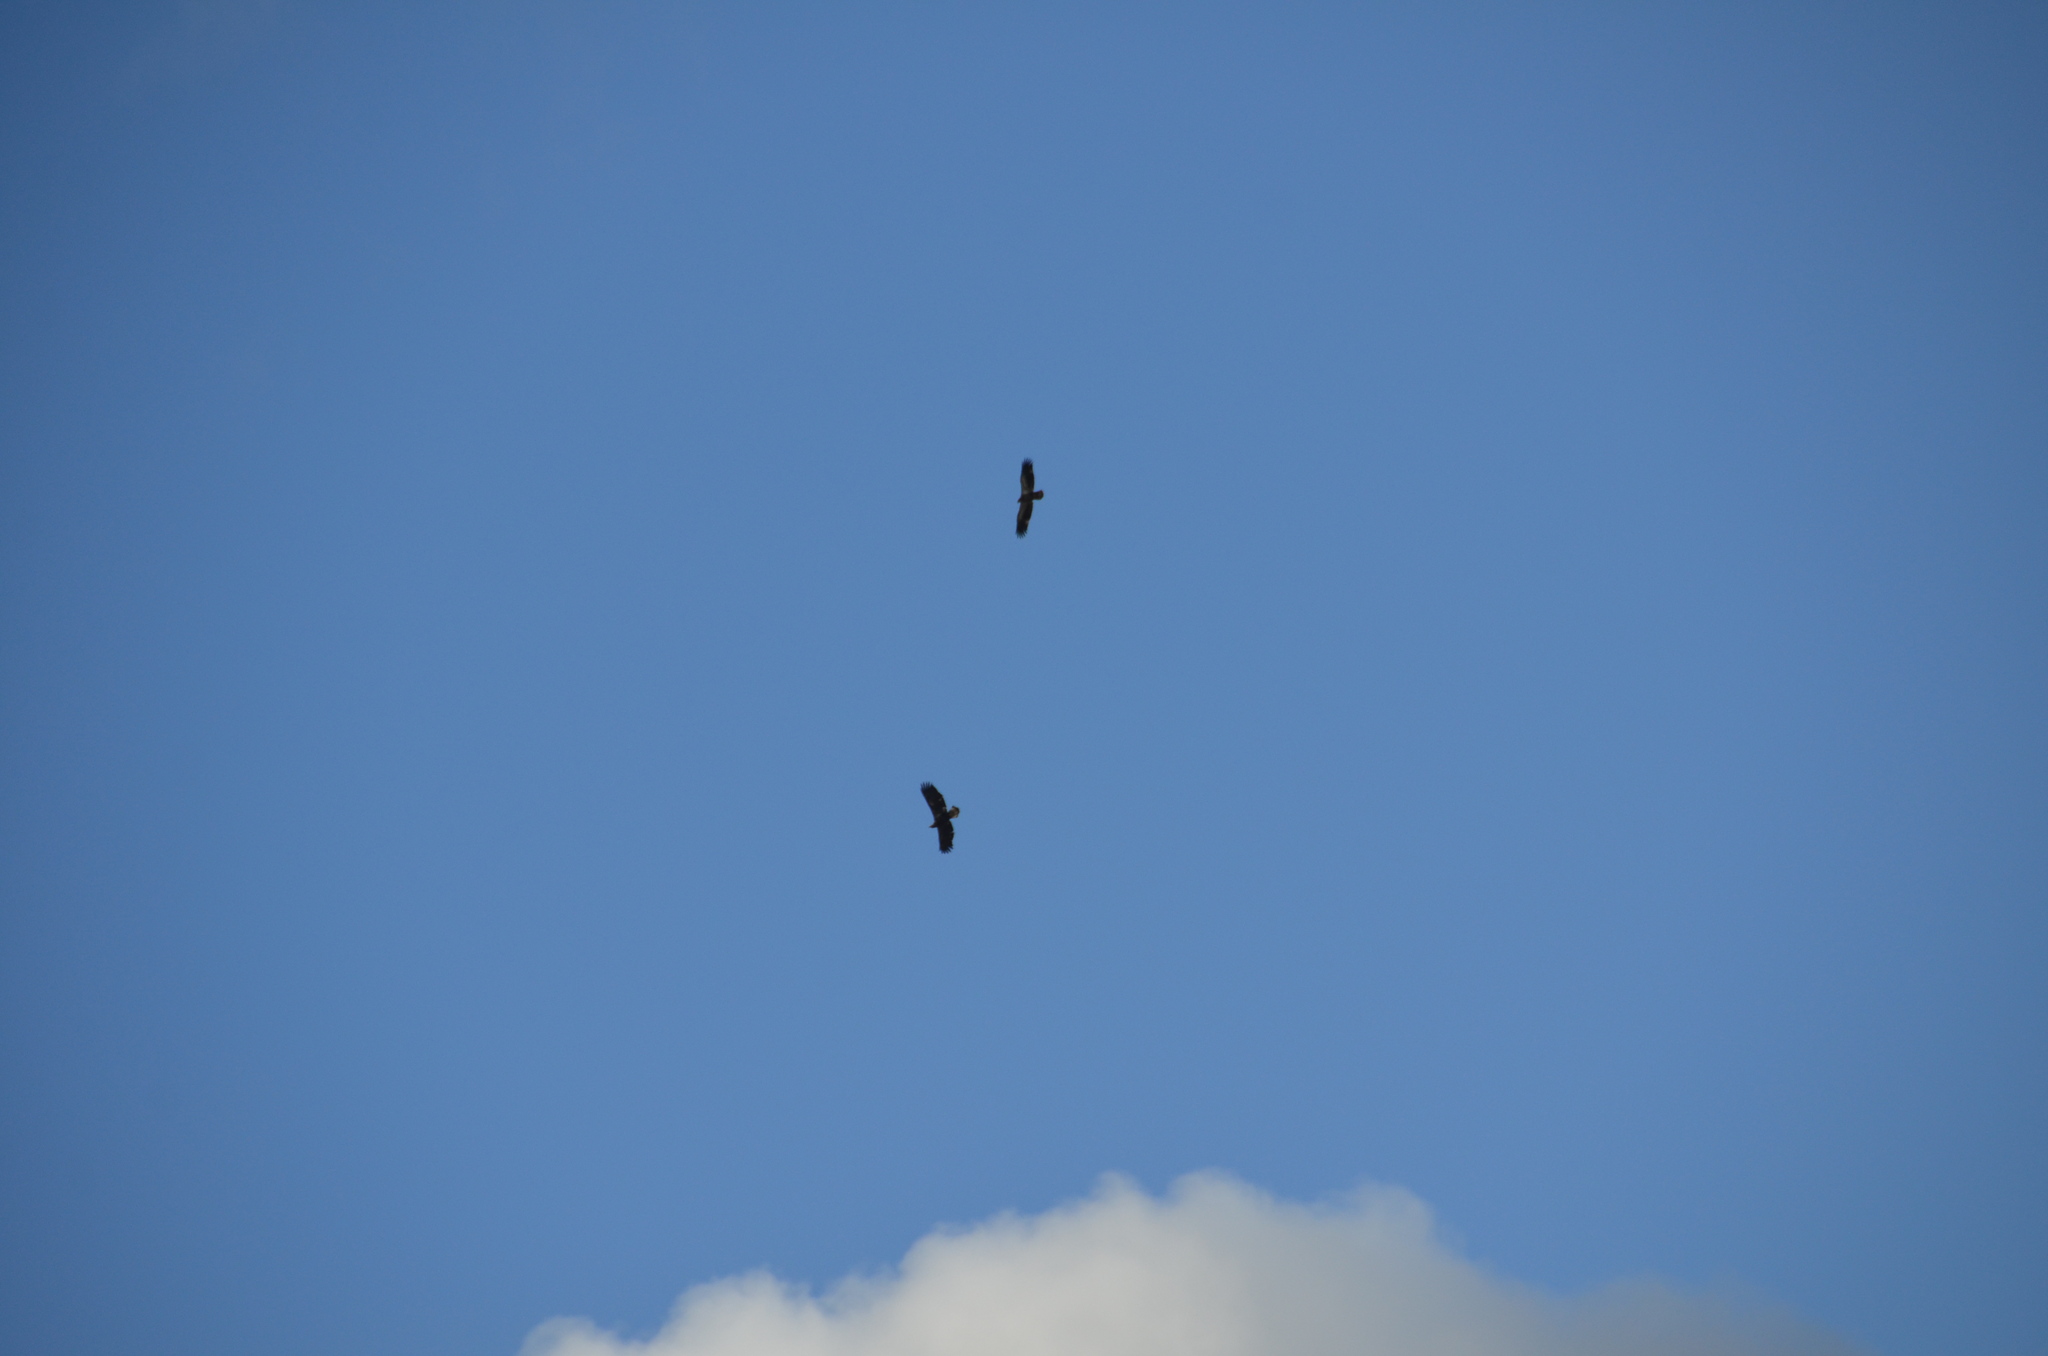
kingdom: Animalia
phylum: Chordata
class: Aves
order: Accipitriformes
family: Accipitridae
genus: Haliaeetus
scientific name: Haliaeetus leucocephalus
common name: Bald eagle
